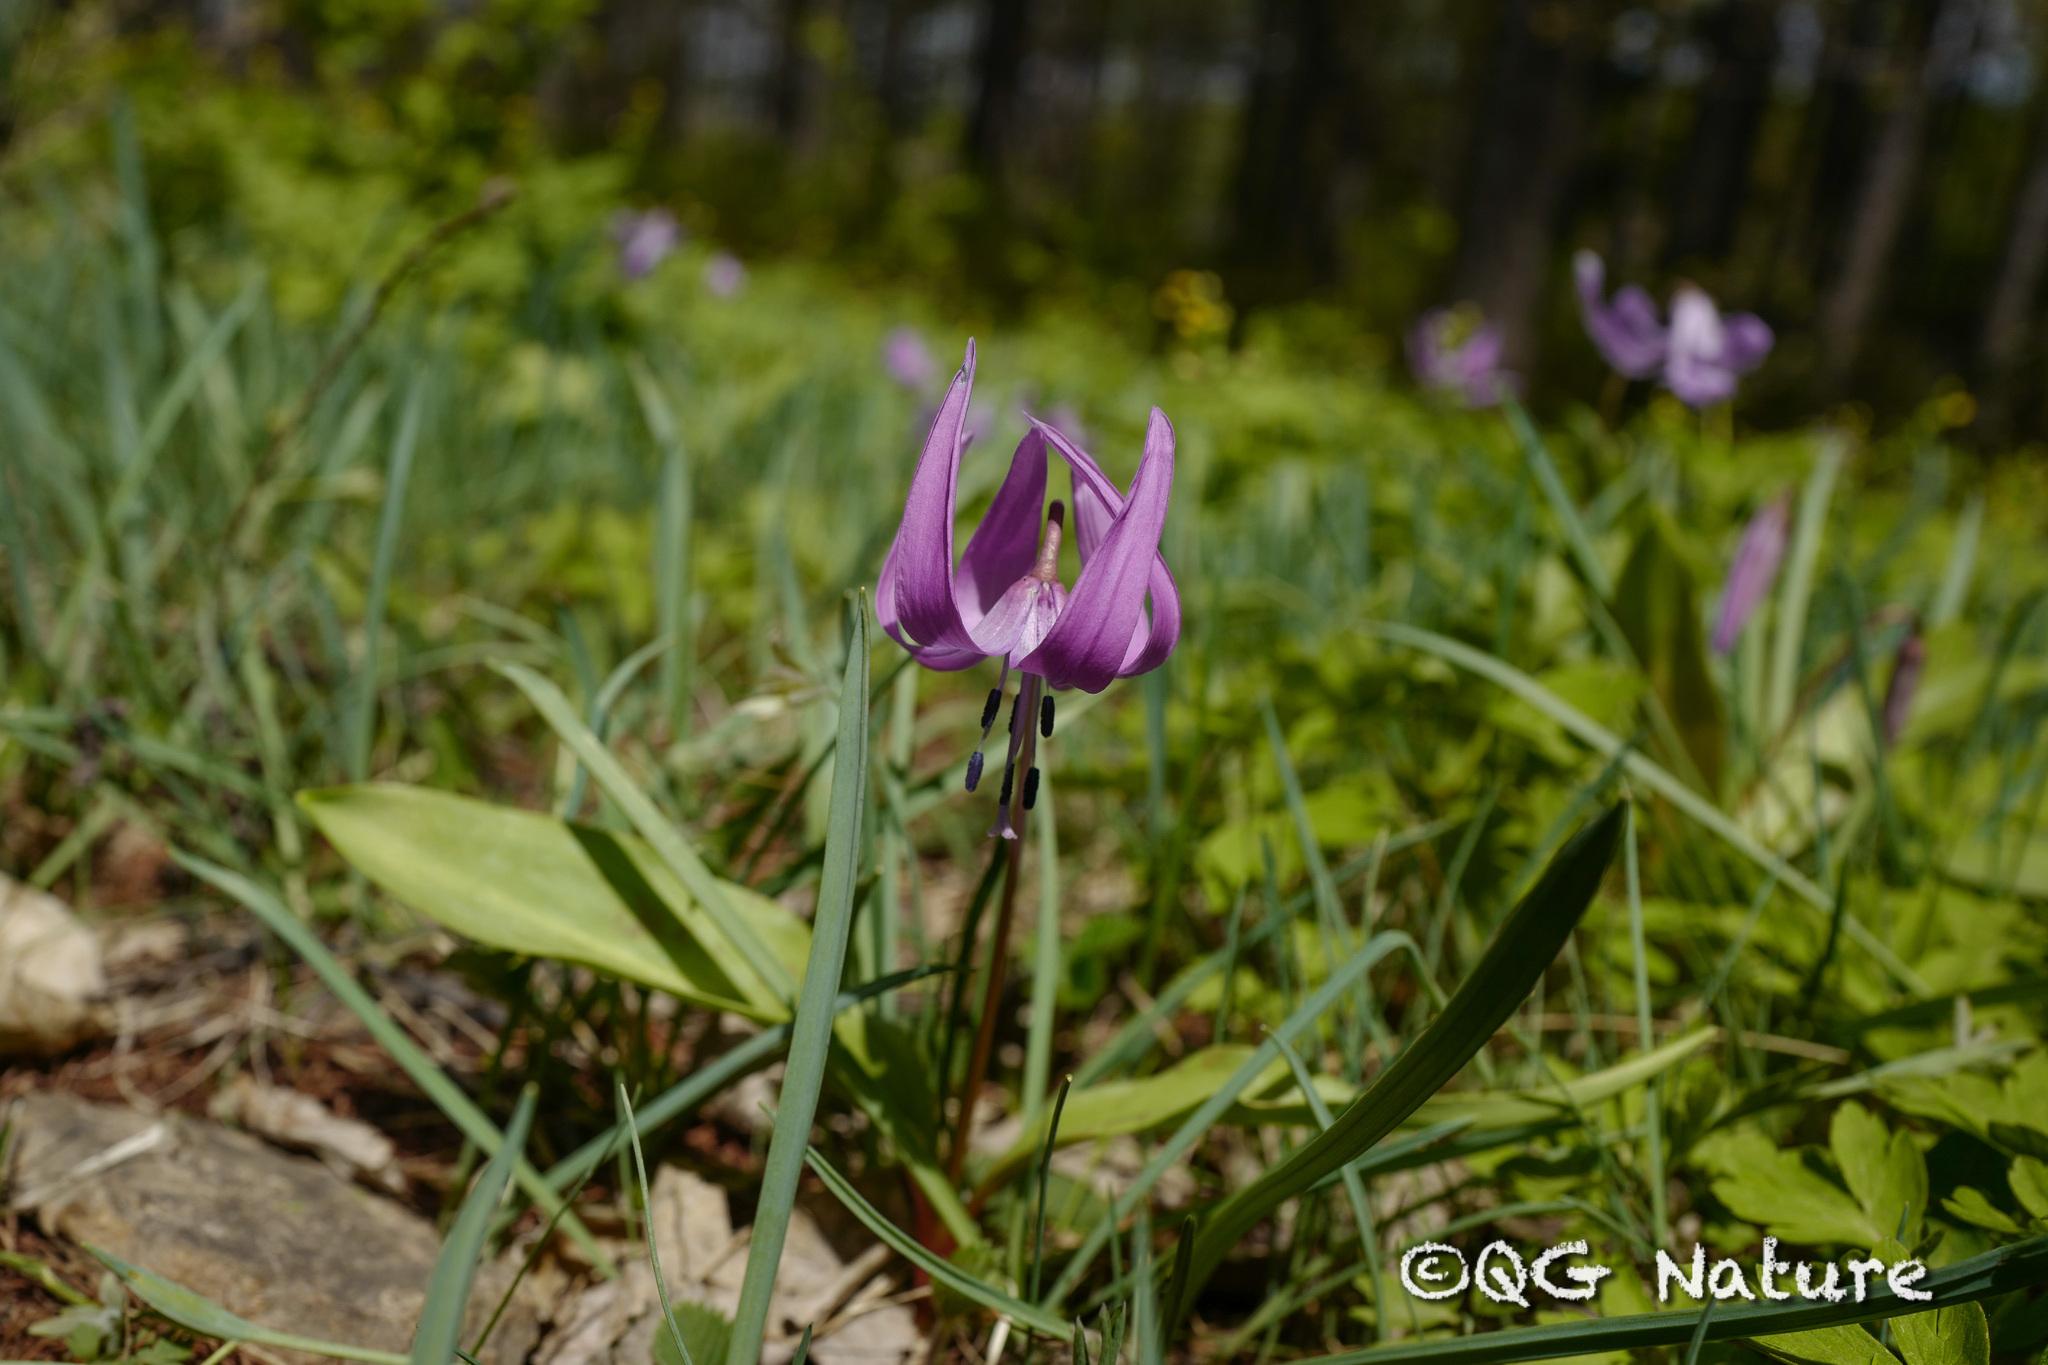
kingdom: Plantae
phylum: Tracheophyta
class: Liliopsida
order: Liliales
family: Liliaceae
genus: Erythronium
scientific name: Erythronium japonicum
